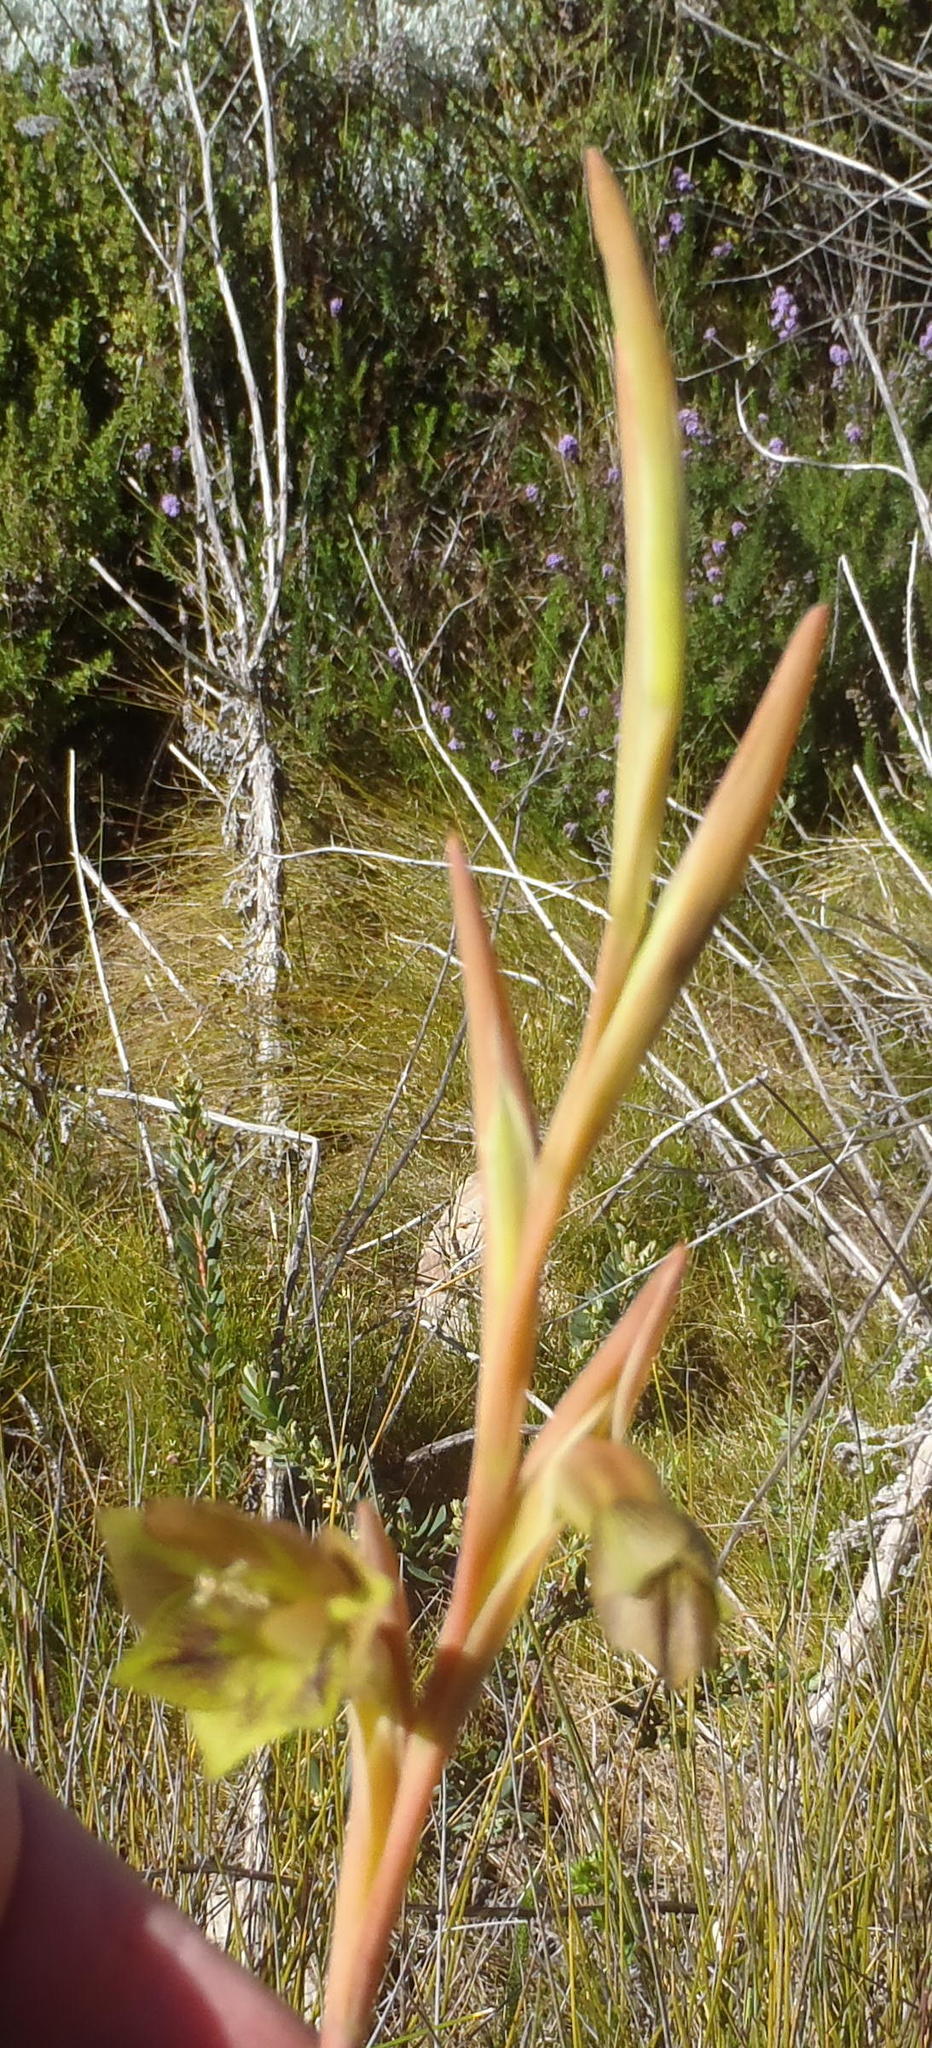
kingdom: Plantae
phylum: Tracheophyta
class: Liliopsida
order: Asparagales
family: Iridaceae
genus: Gladiolus
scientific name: Gladiolus fourcadei
